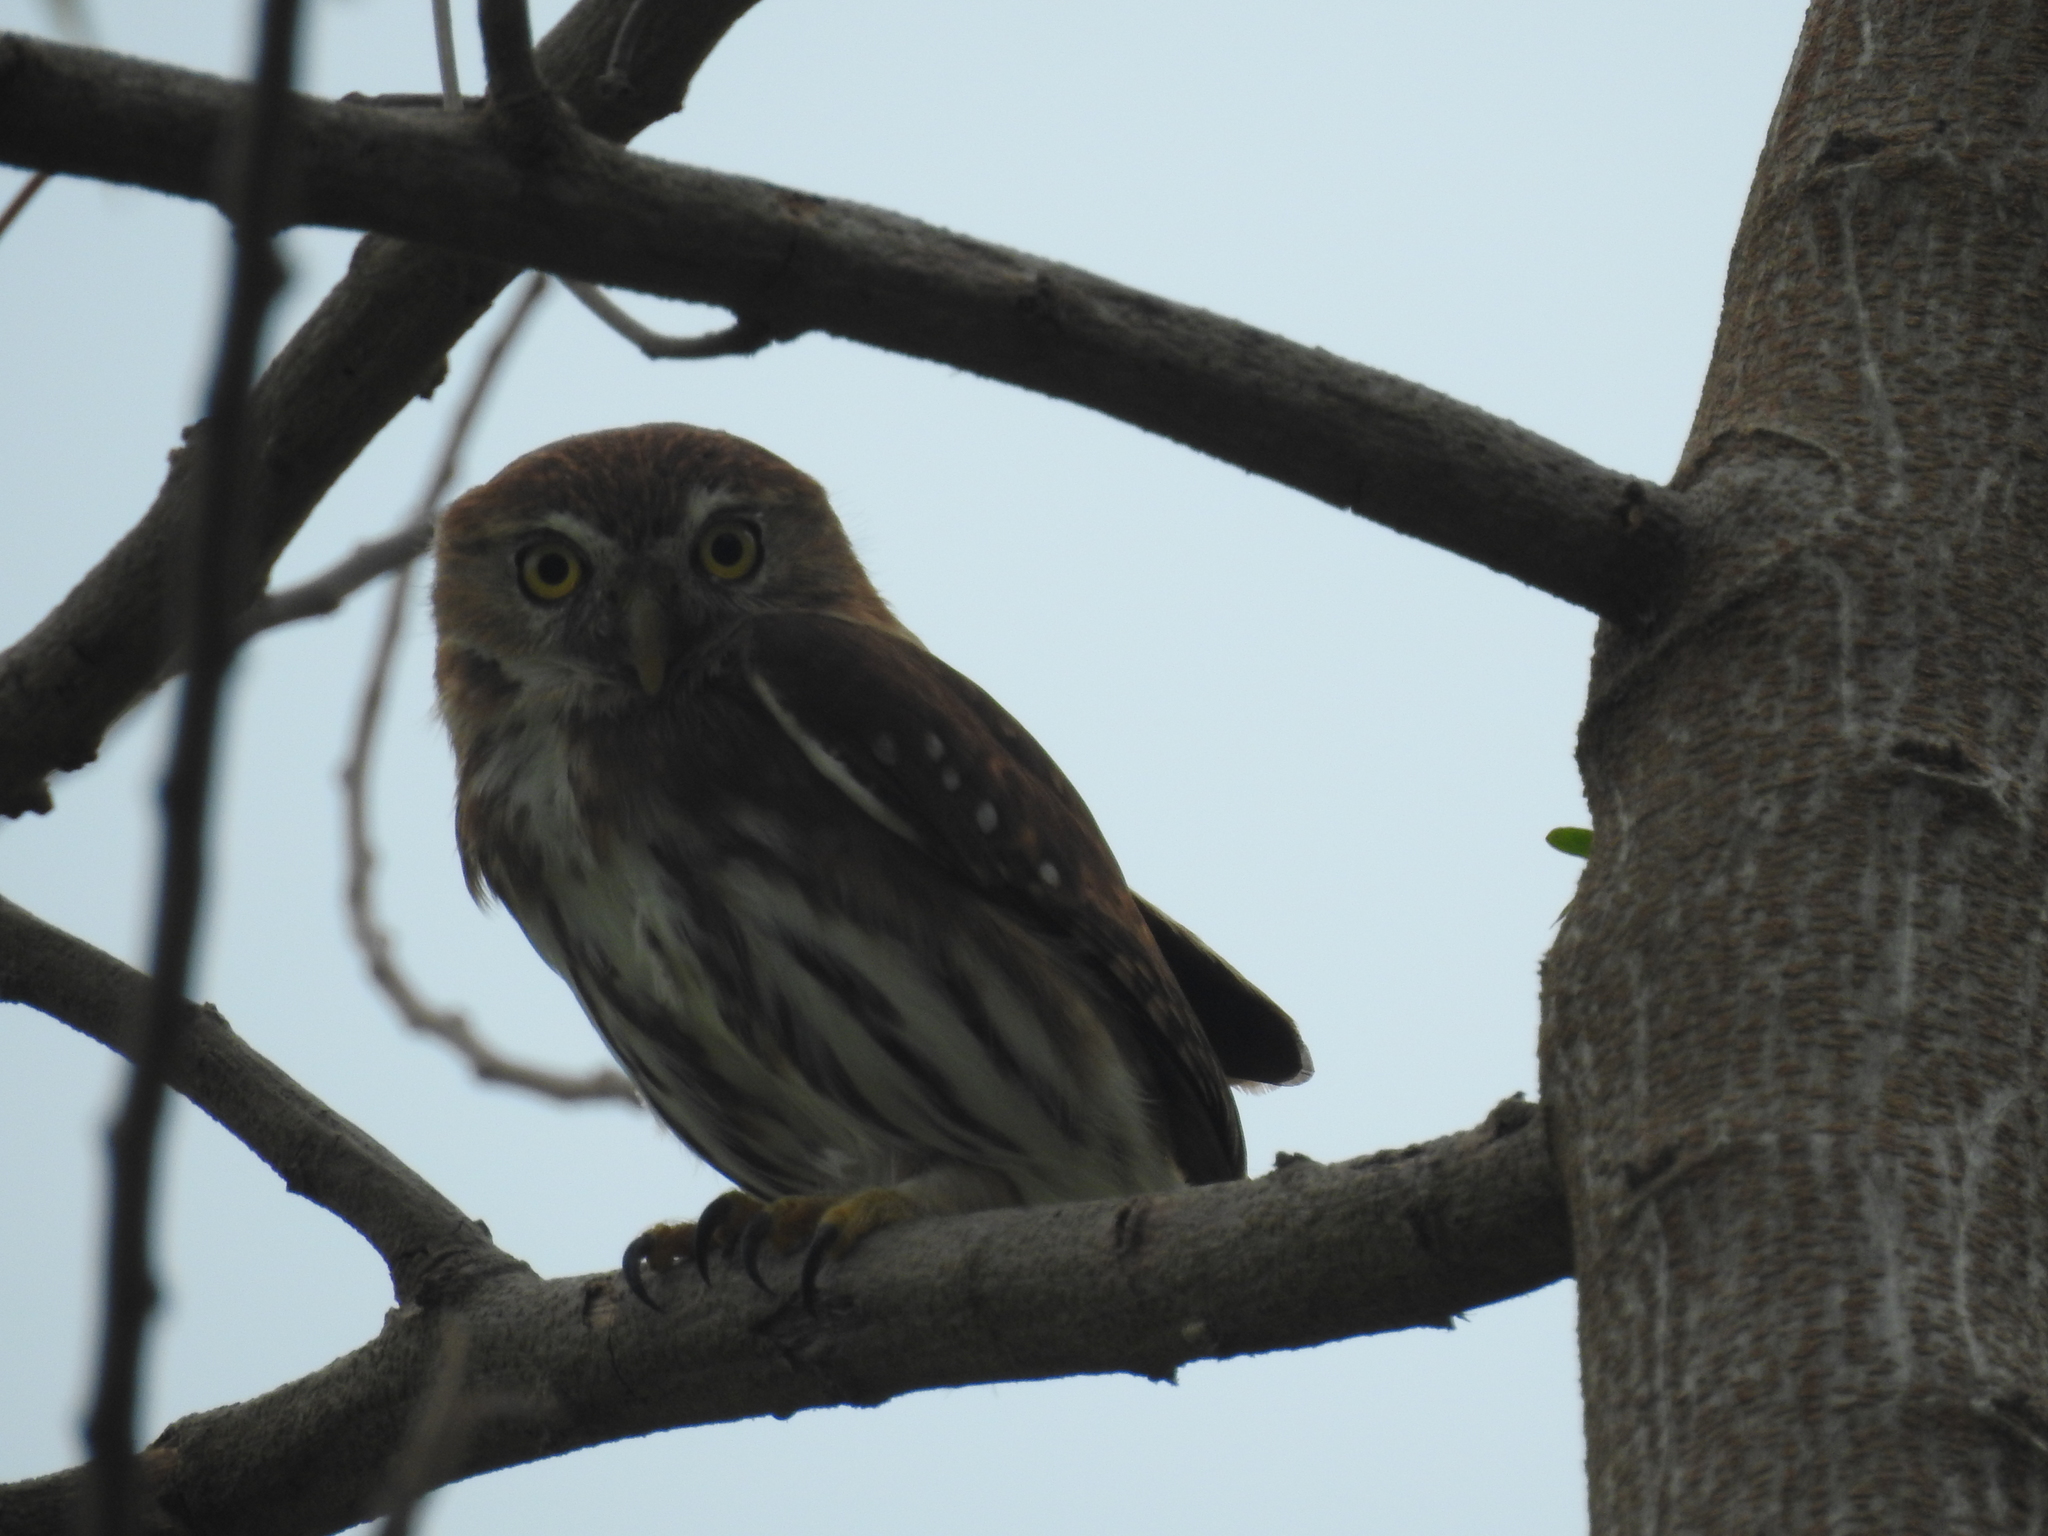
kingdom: Animalia
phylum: Chordata
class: Aves
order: Strigiformes
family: Strigidae
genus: Glaucidium
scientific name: Glaucidium brasilianum
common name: Ferruginous pygmy-owl
